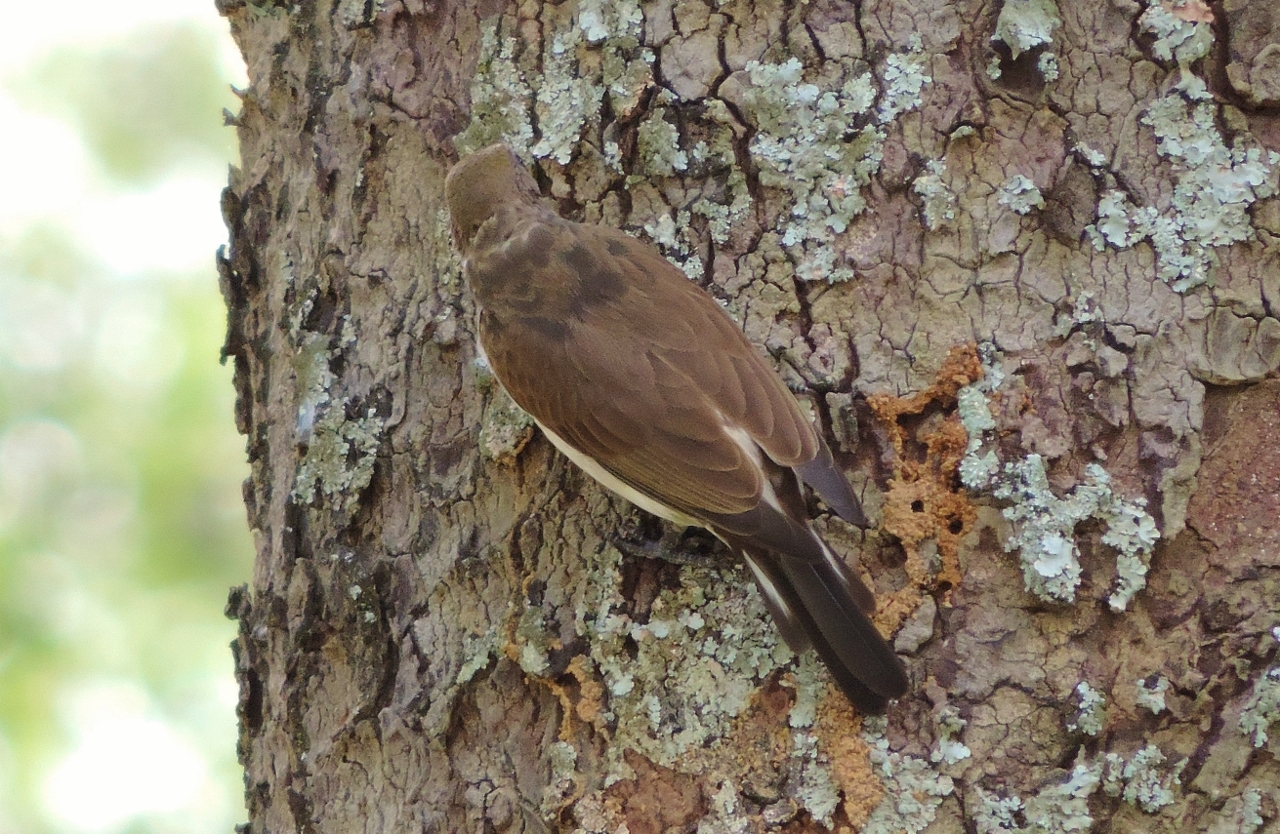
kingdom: Animalia
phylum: Chordata
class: Aves
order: Piciformes
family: Indicatoridae
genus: Indicator
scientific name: Indicator indicator
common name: Greater honeyguide
